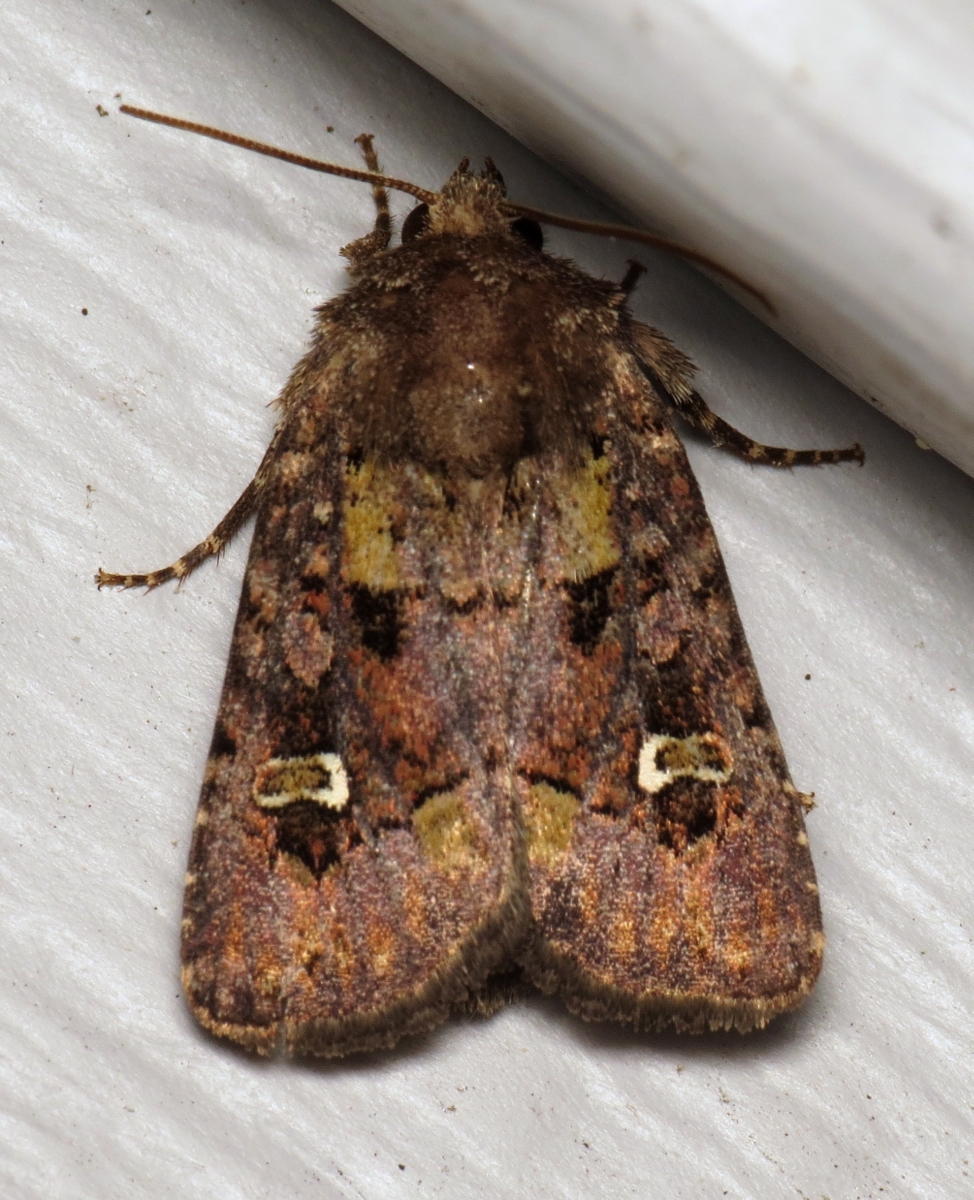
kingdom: Animalia
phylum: Arthropoda
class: Insecta
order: Lepidoptera
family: Noctuidae
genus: Lacinipolia
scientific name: Lacinipolia renigera
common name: Kidney-spotted minor
